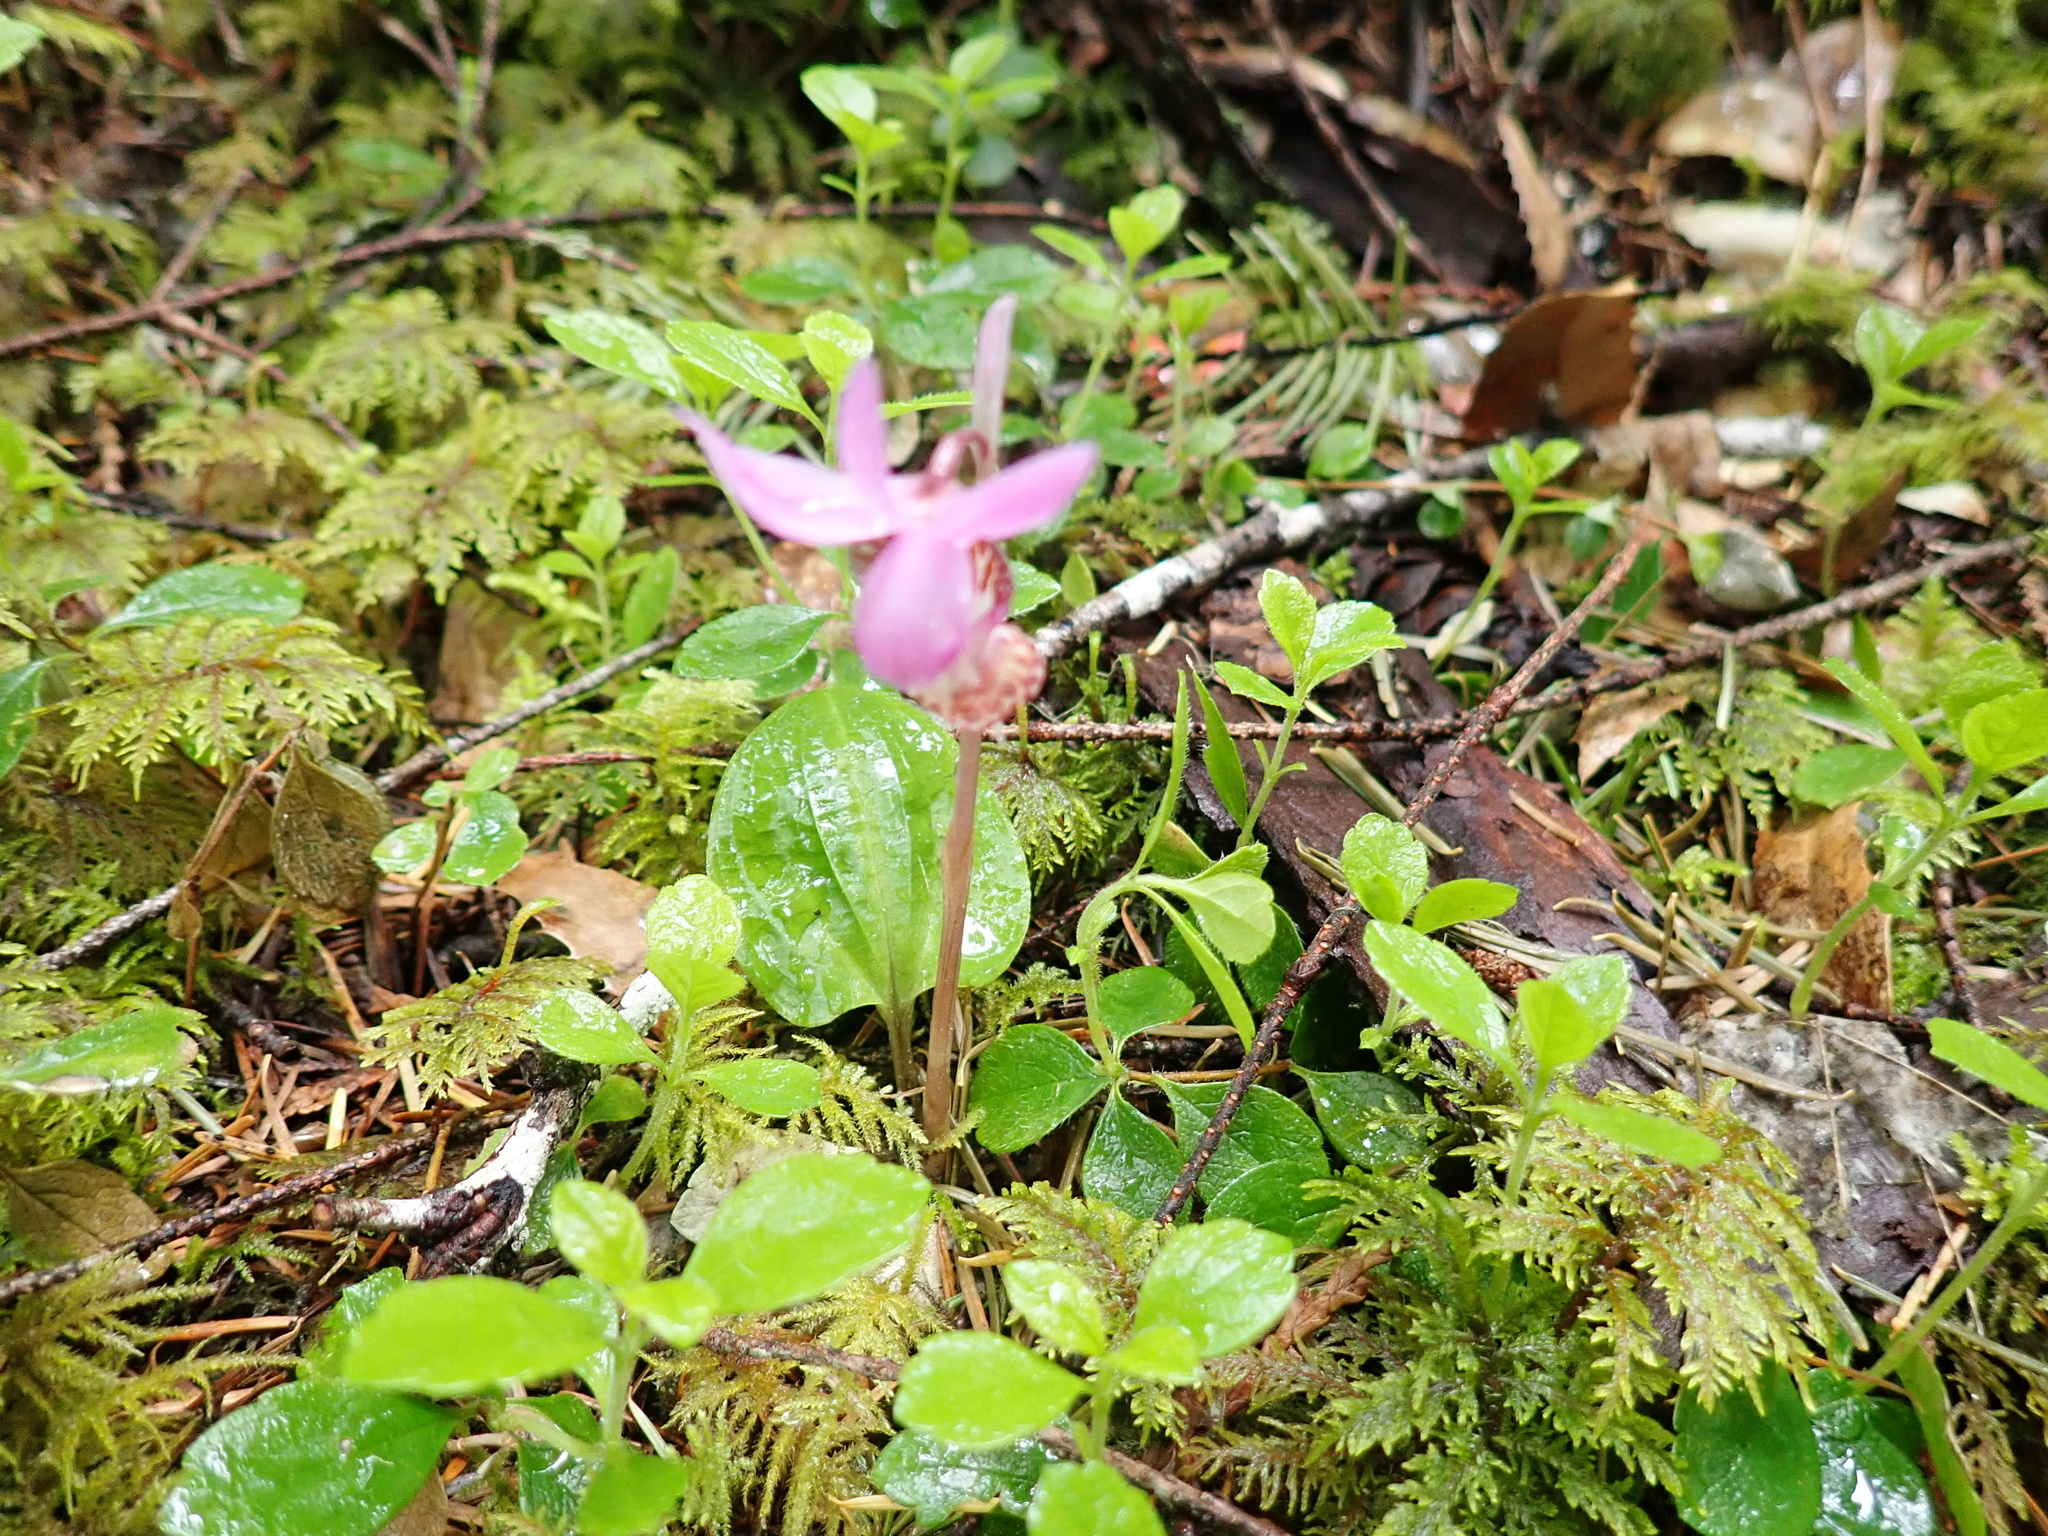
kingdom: Plantae
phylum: Tracheophyta
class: Liliopsida
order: Asparagales
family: Orchidaceae
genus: Calypso
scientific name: Calypso bulbosa
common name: Calypso
